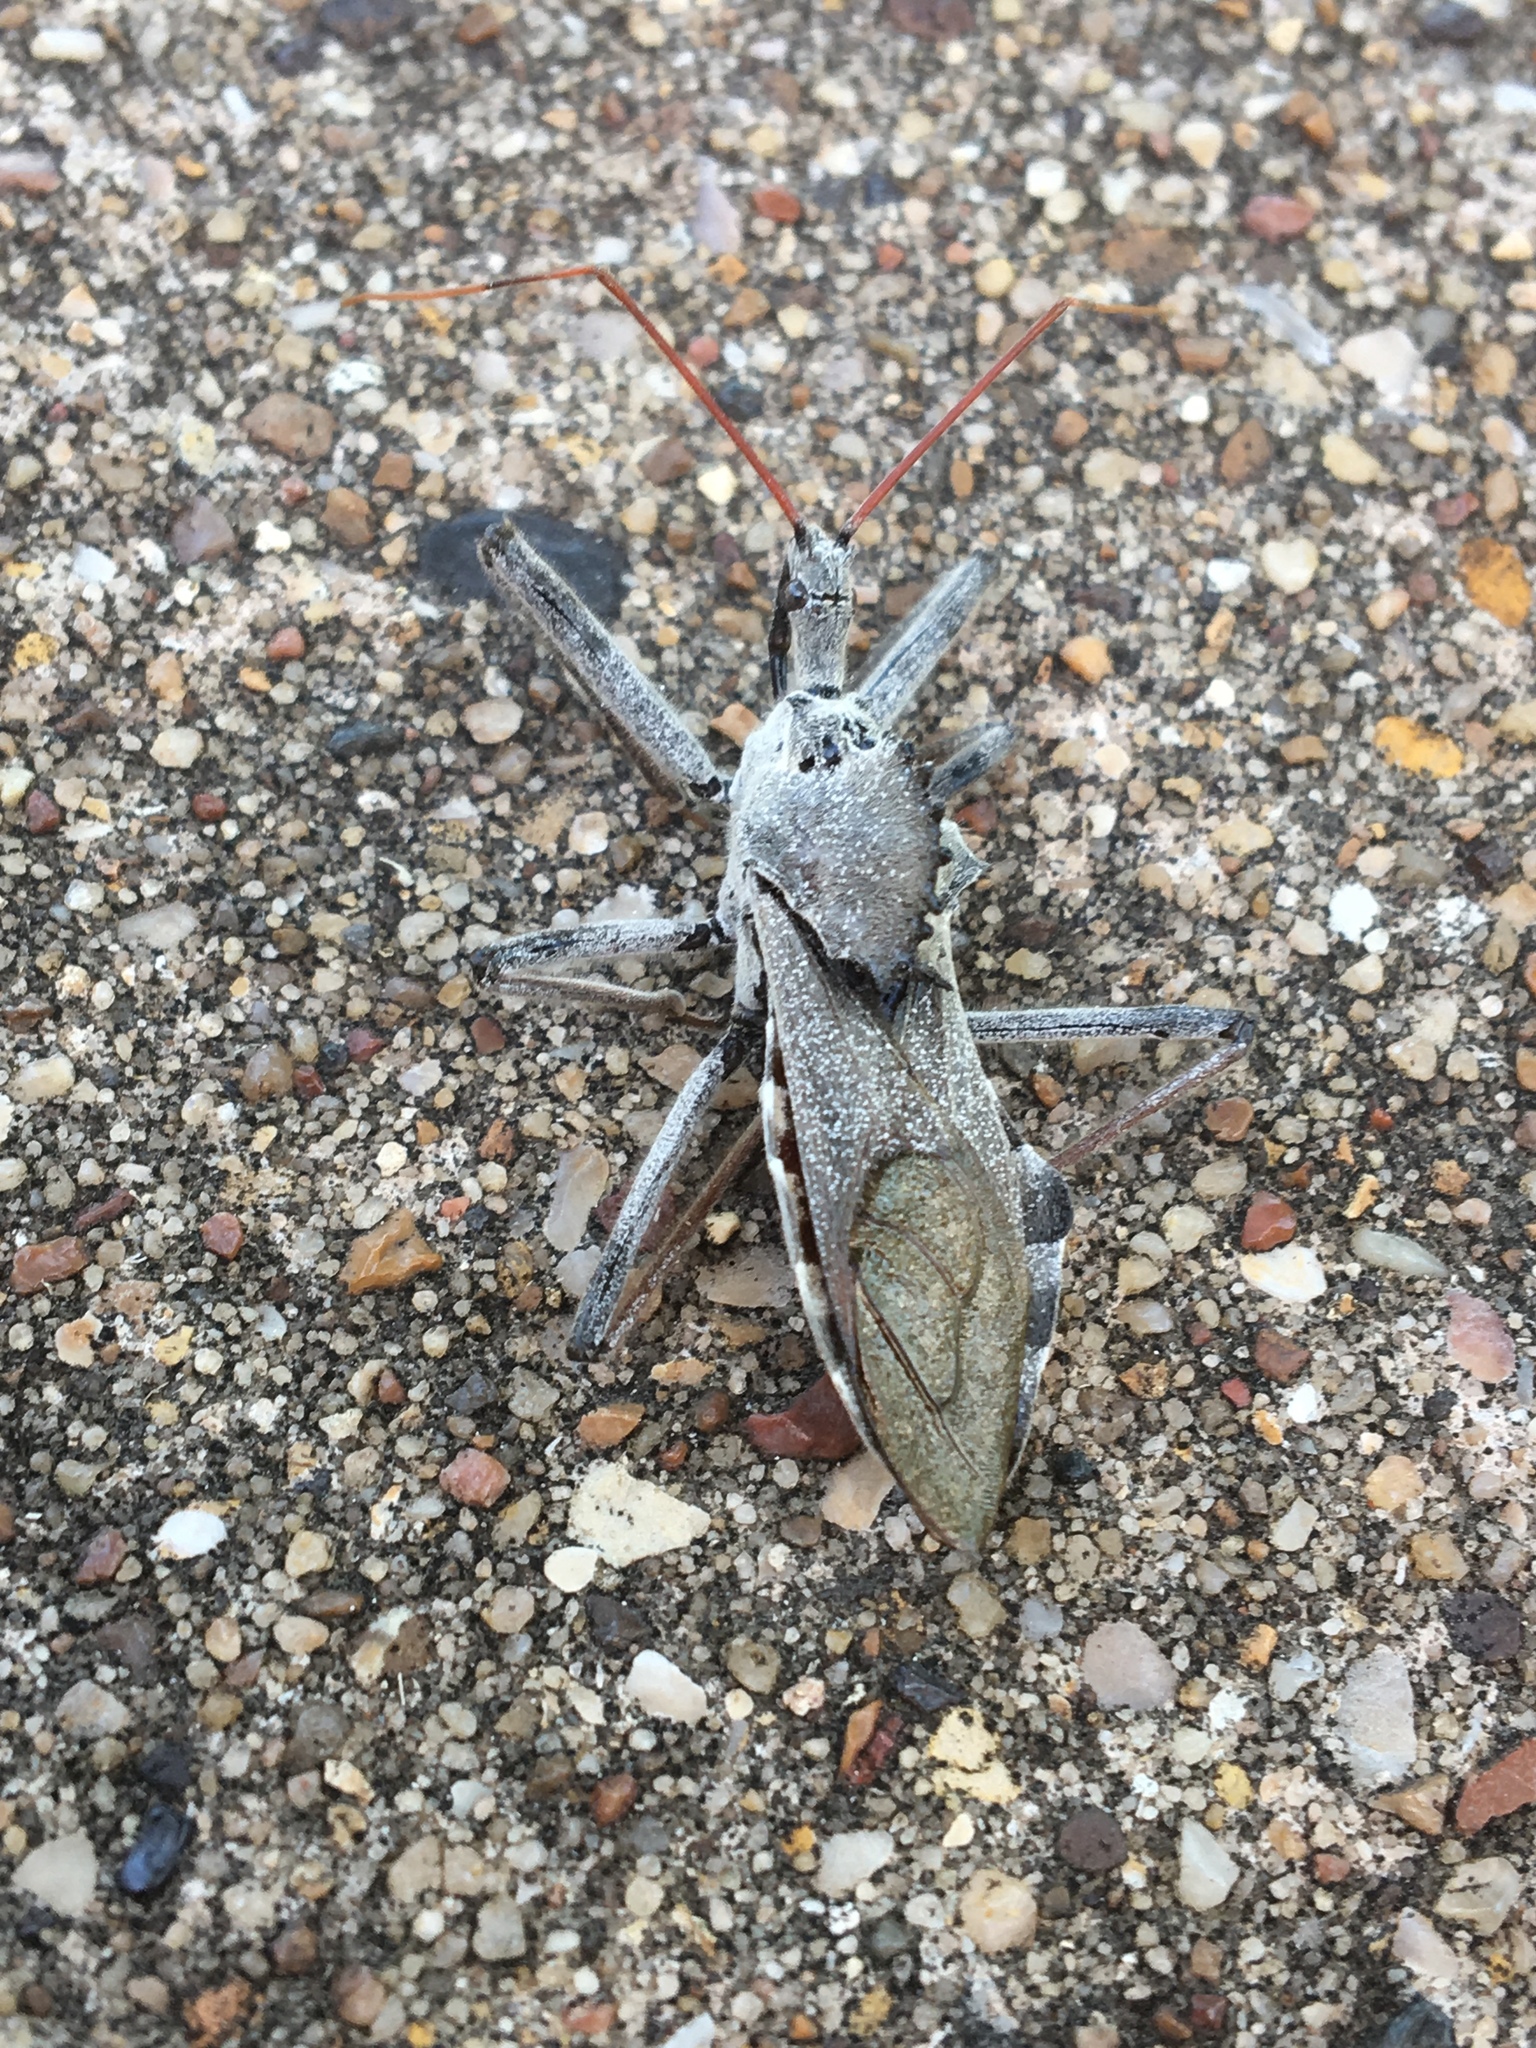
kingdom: Animalia
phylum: Arthropoda
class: Insecta
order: Hemiptera
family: Reduviidae
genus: Arilus
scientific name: Arilus cristatus
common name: North american wheel bug
